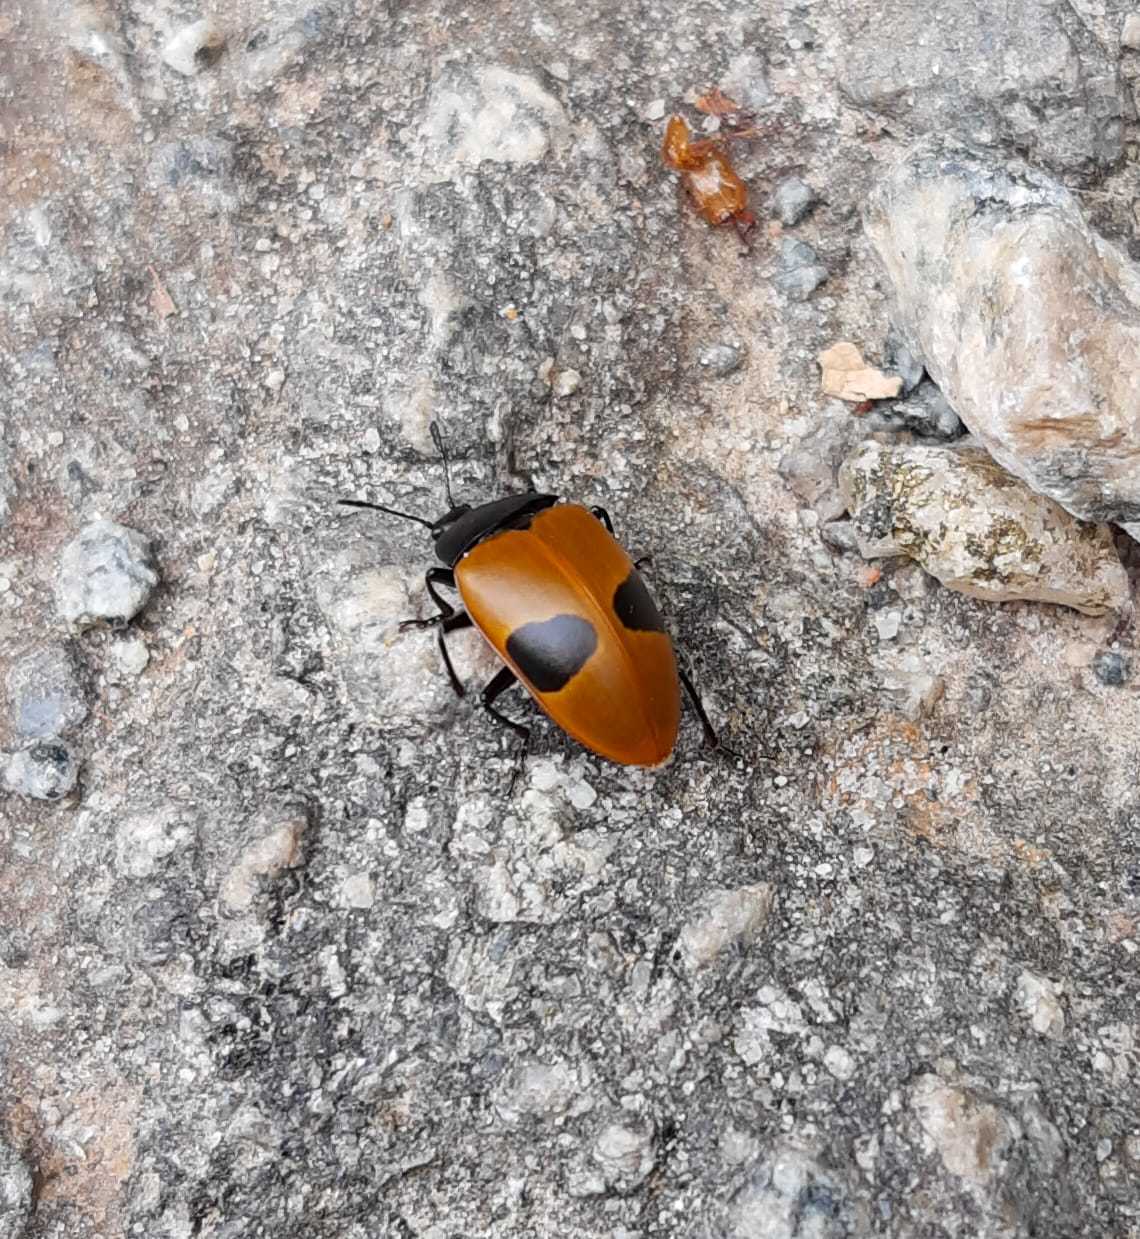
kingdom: Animalia
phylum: Arthropoda
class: Insecta
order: Coleoptera
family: Erotylidae
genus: Iphiclus
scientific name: Iphiclus
